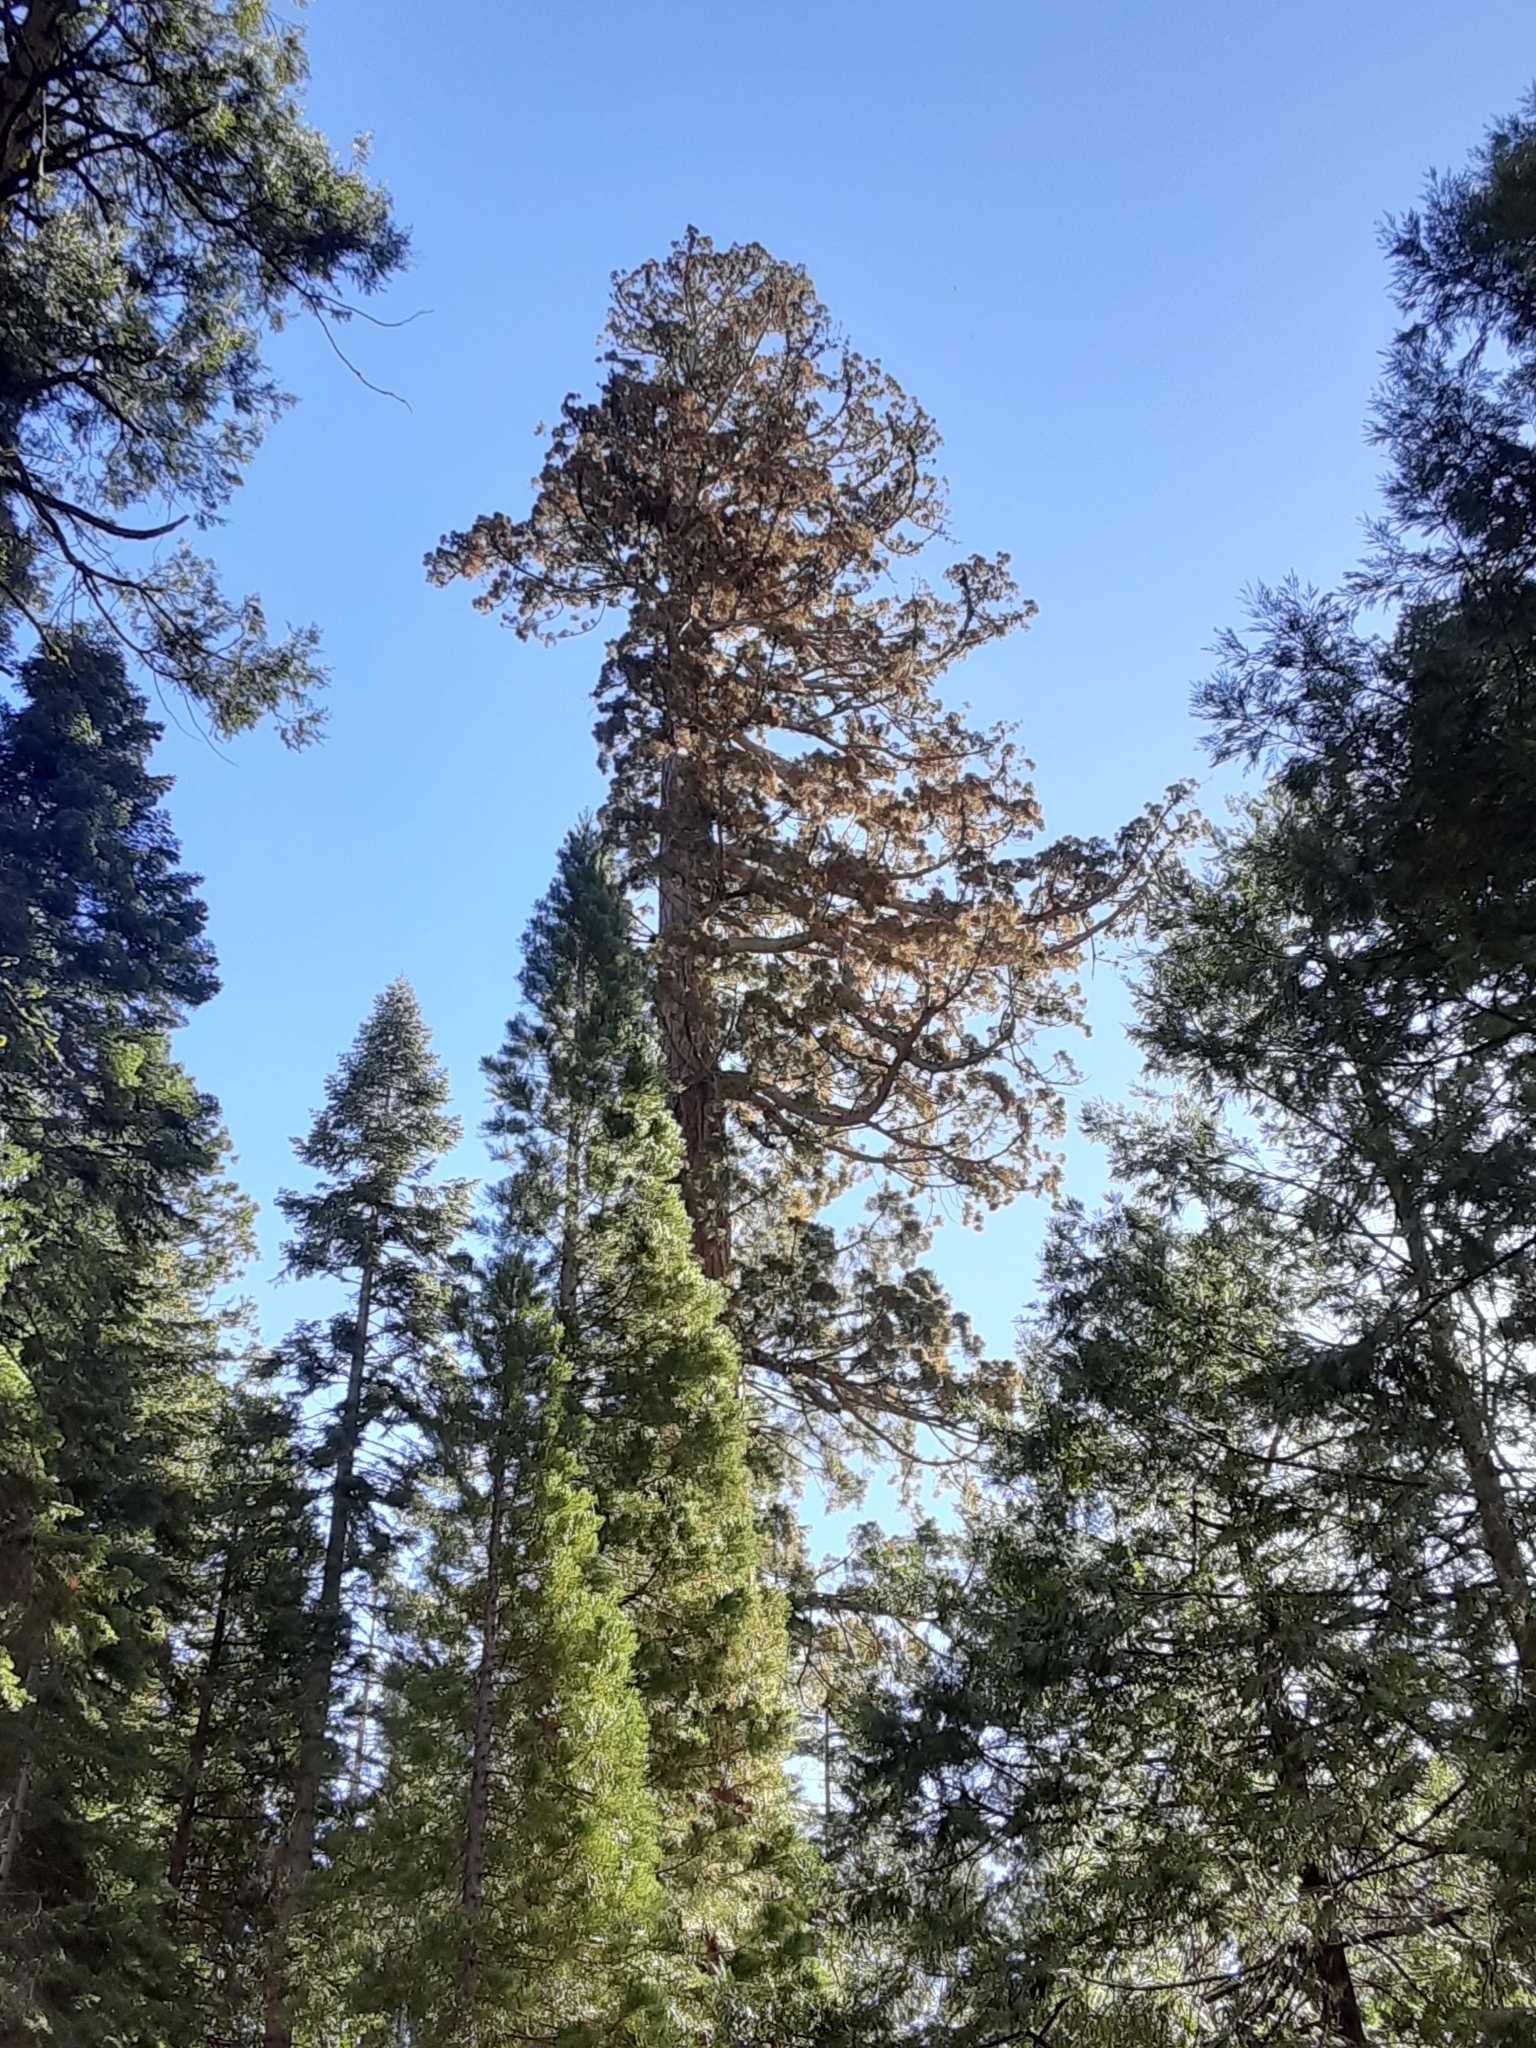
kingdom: Plantae
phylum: Tracheophyta
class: Pinopsida
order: Pinales
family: Cupressaceae
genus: Sequoiadendron
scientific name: Sequoiadendron giganteum
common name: Wellingtonia
